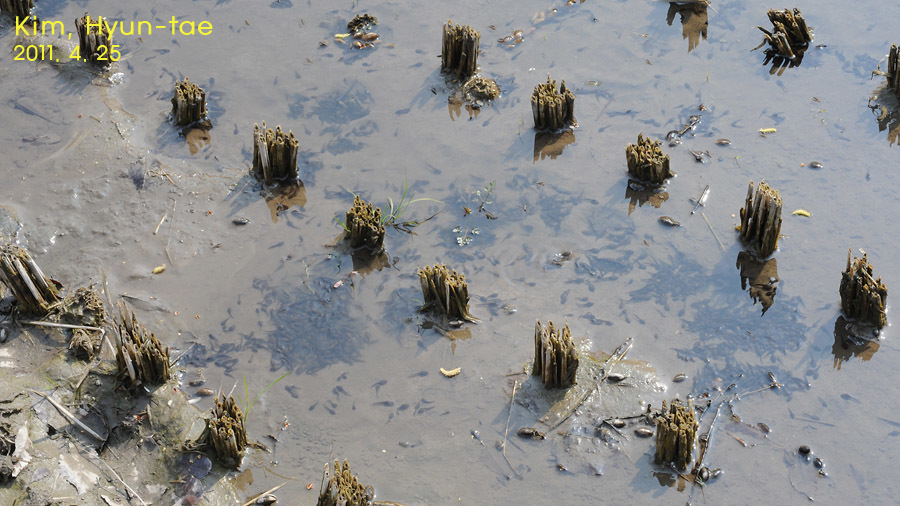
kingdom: Animalia
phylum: Chordata
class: Amphibia
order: Anura
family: Ranidae
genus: Rana
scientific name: Rana uenoi
